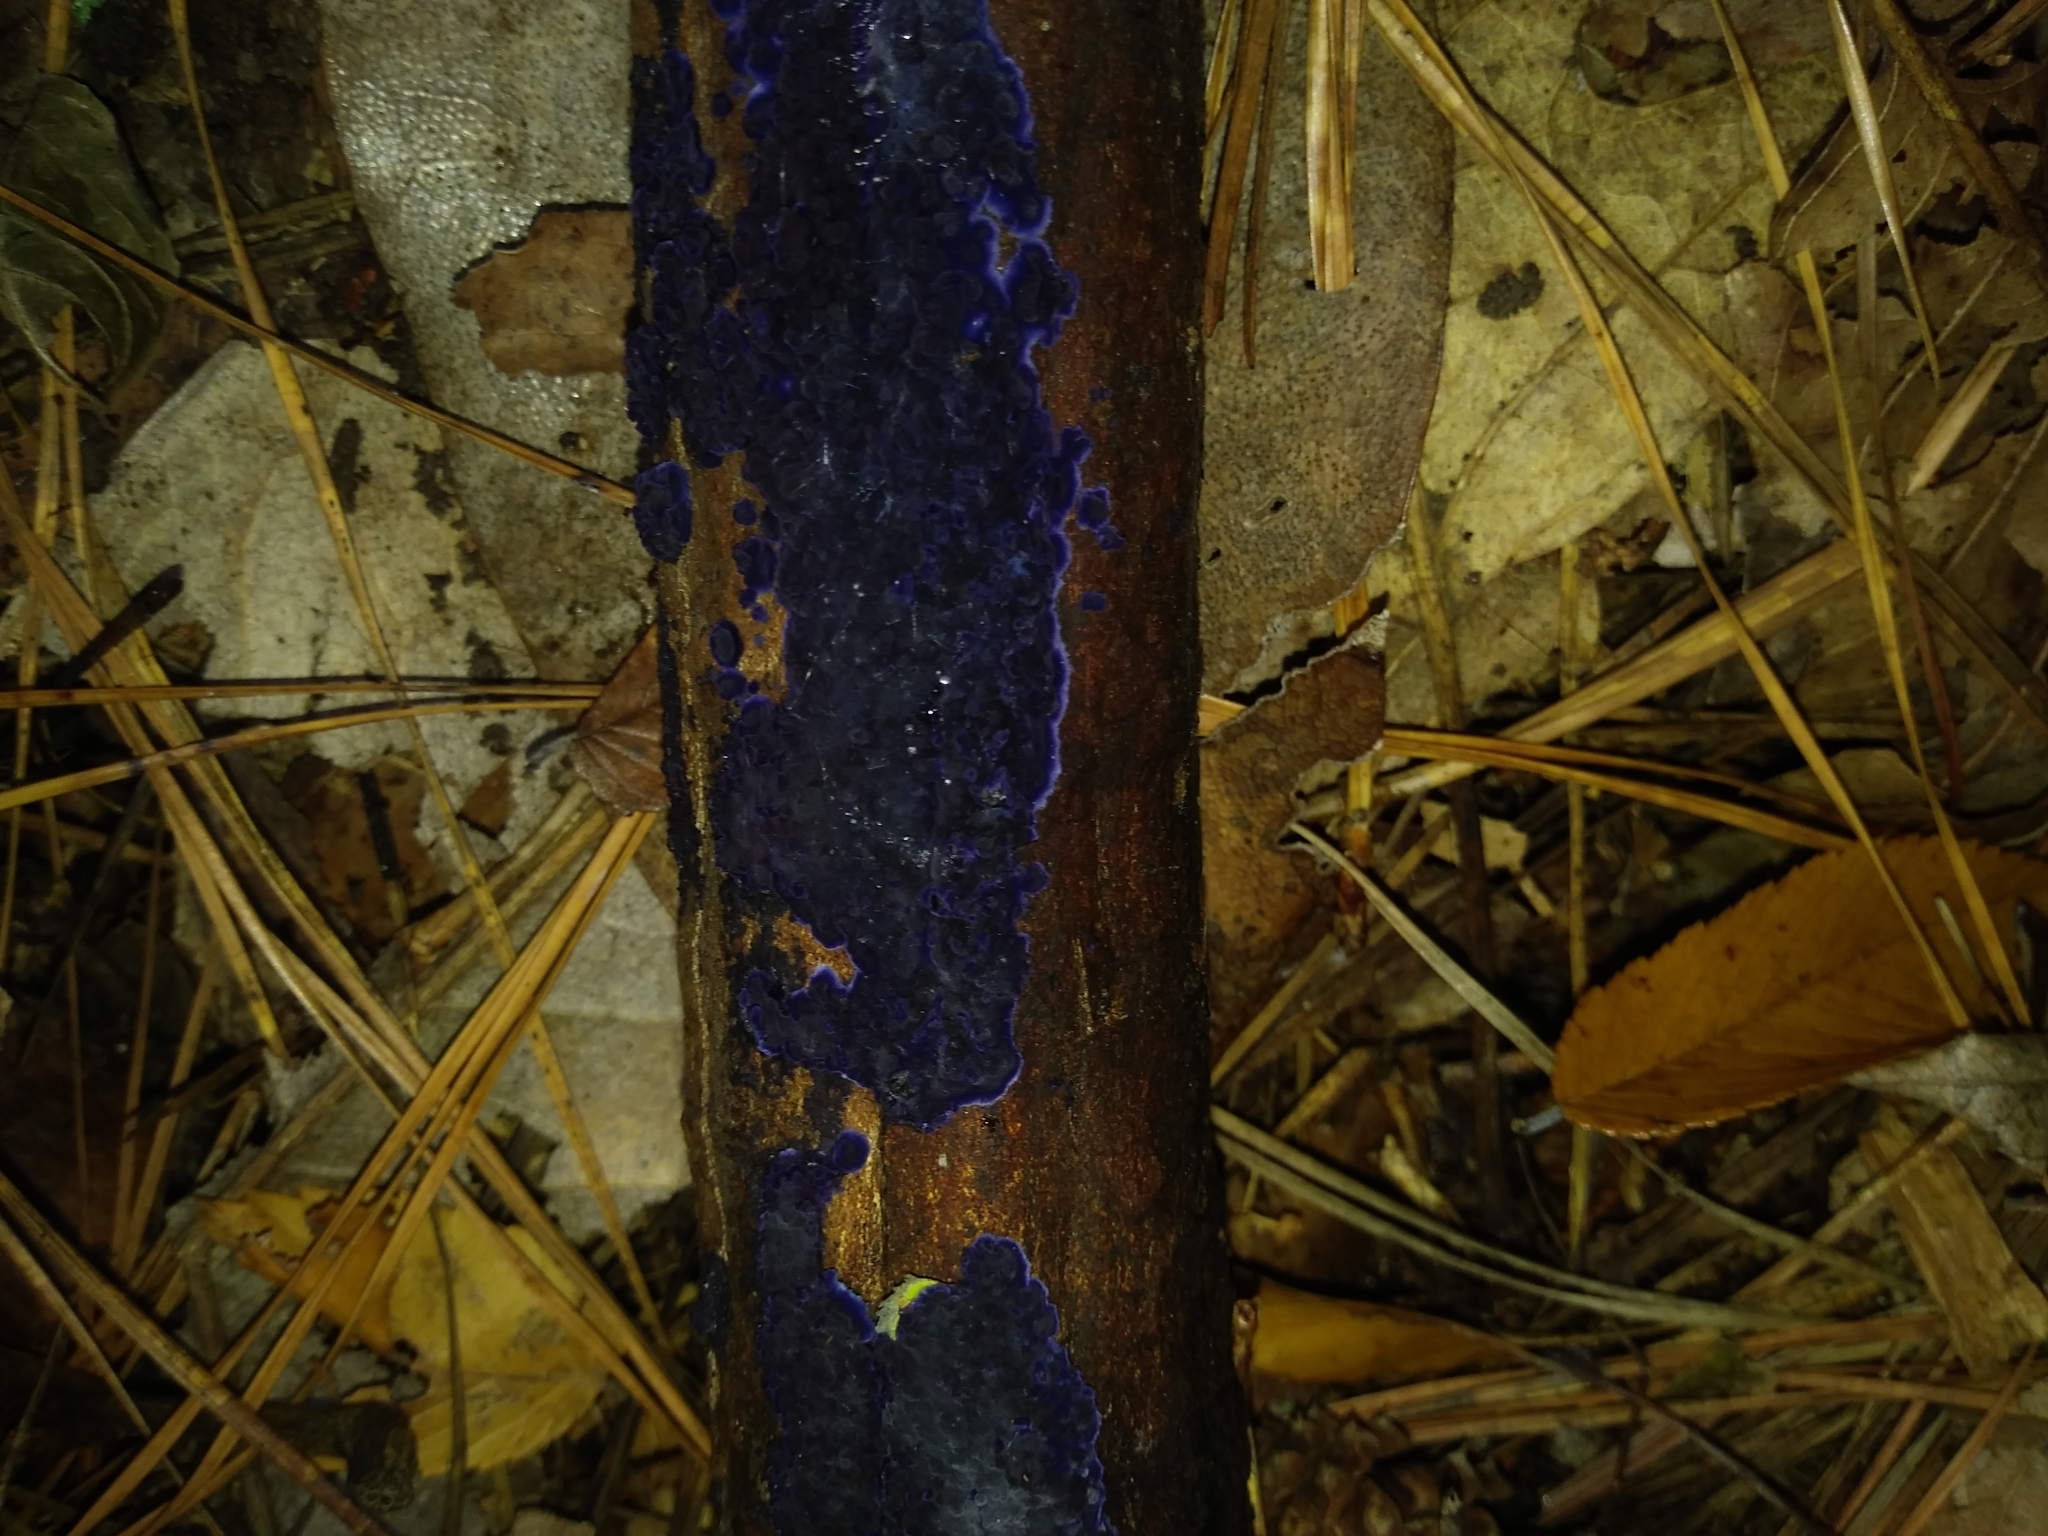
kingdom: Fungi
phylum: Basidiomycota
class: Agaricomycetes
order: Polyporales
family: Phanerochaetaceae
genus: Terana
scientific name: Terana coerulea
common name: Cobalt crust
